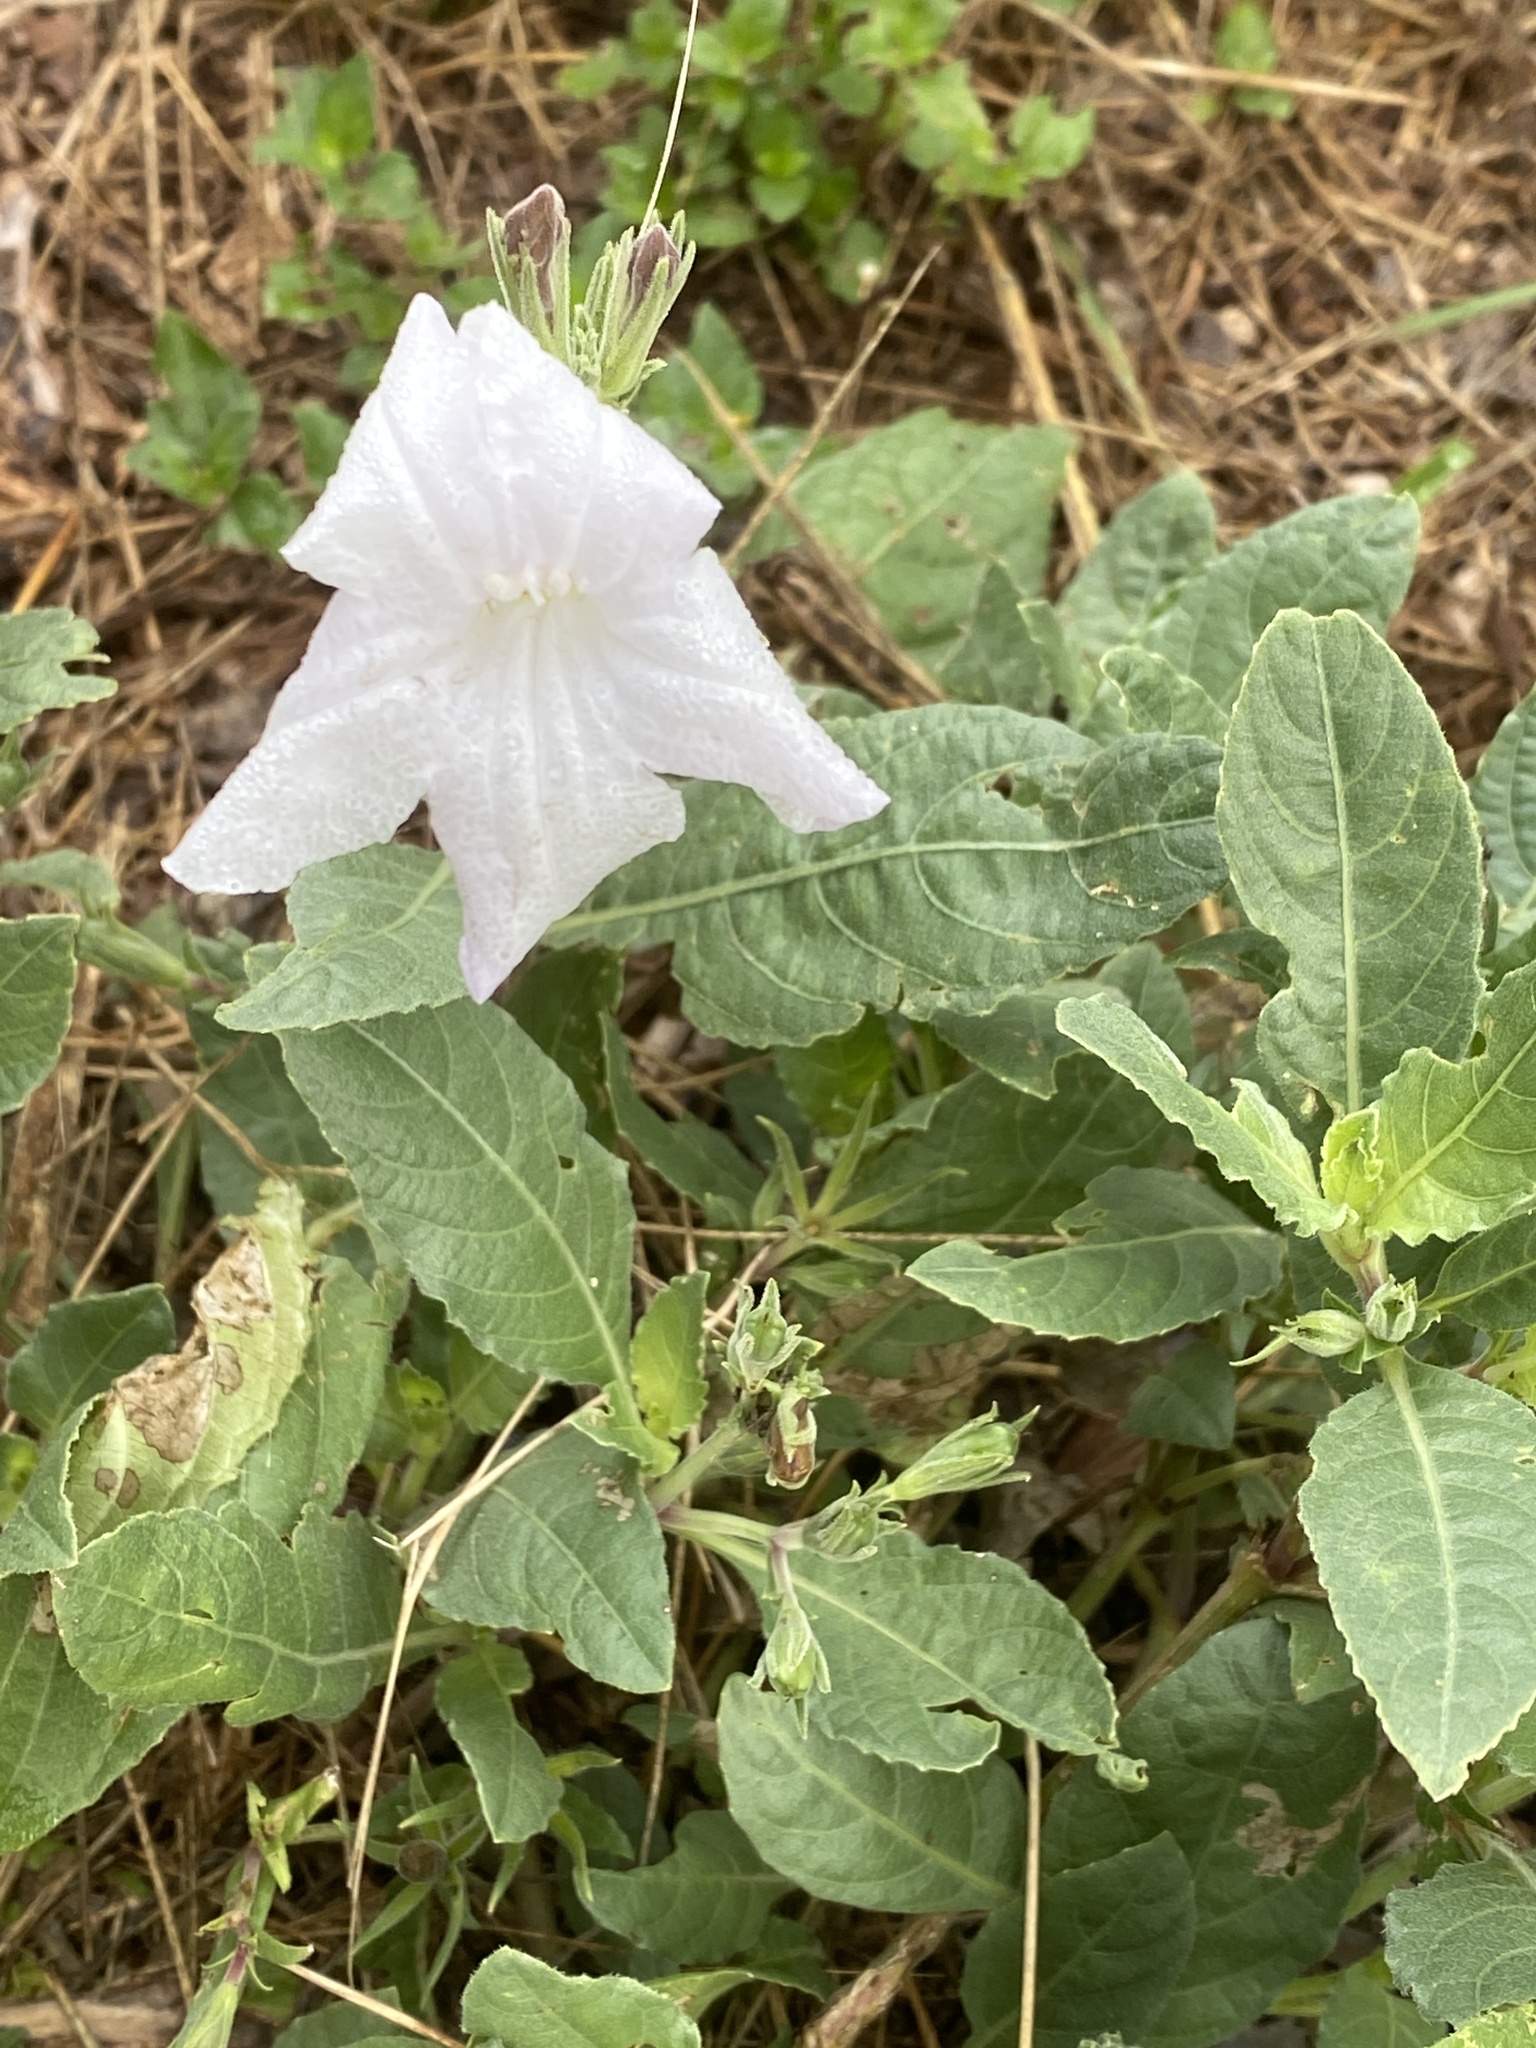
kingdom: Plantae
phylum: Tracheophyta
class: Magnoliopsida
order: Lamiales
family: Acanthaceae
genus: Ruellia
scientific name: Ruellia metziae
